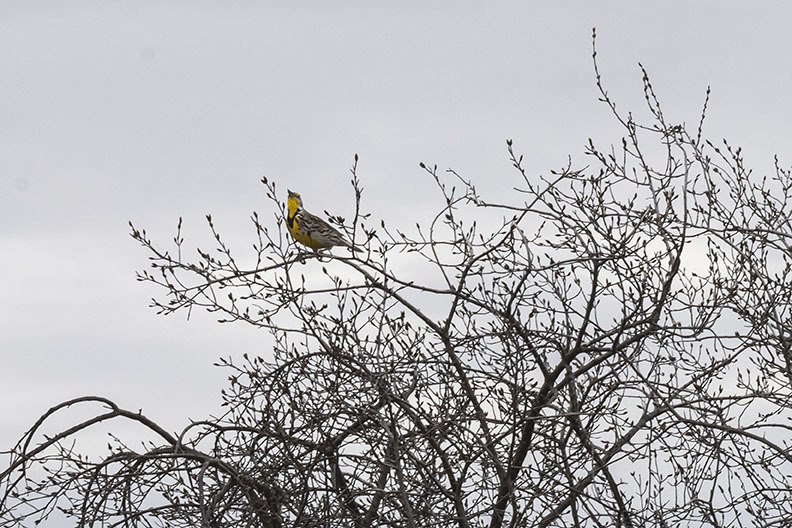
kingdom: Animalia
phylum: Chordata
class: Aves
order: Passeriformes
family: Icteridae
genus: Sturnella
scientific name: Sturnella neglecta
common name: Western meadowlark
